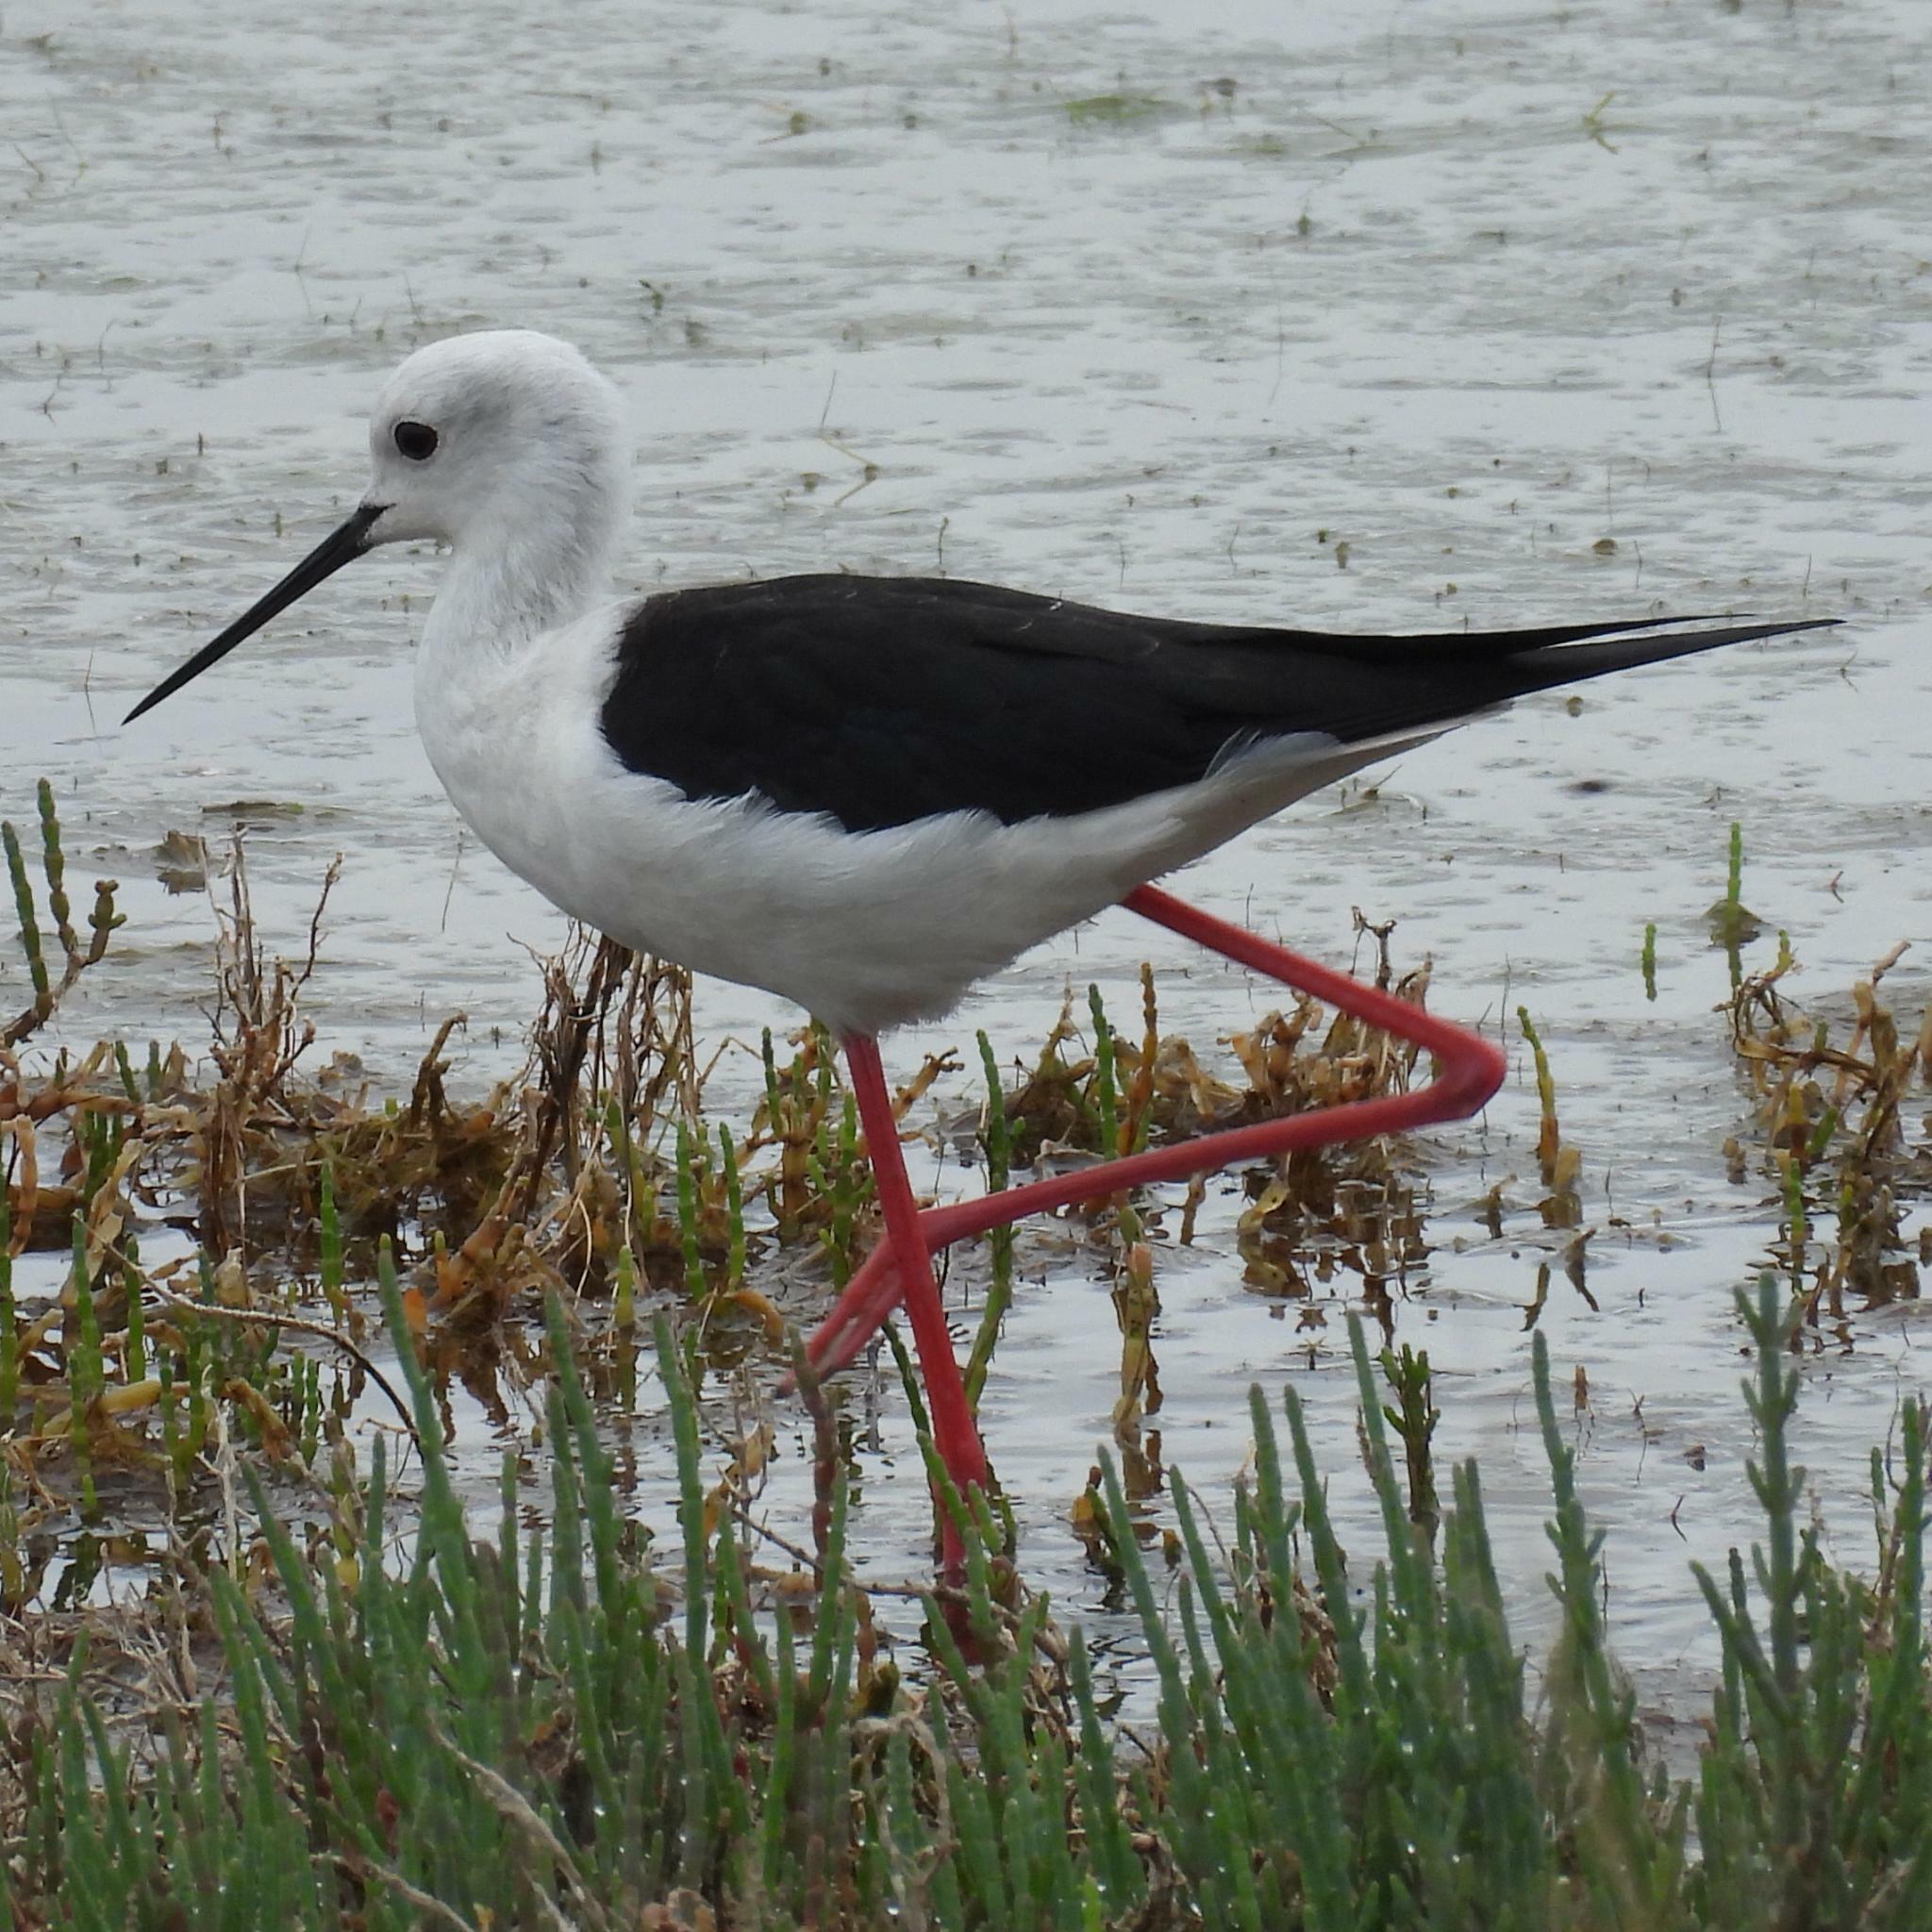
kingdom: Animalia
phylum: Chordata
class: Aves
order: Charadriiformes
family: Recurvirostridae
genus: Himantopus
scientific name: Himantopus himantopus
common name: Black-winged stilt
